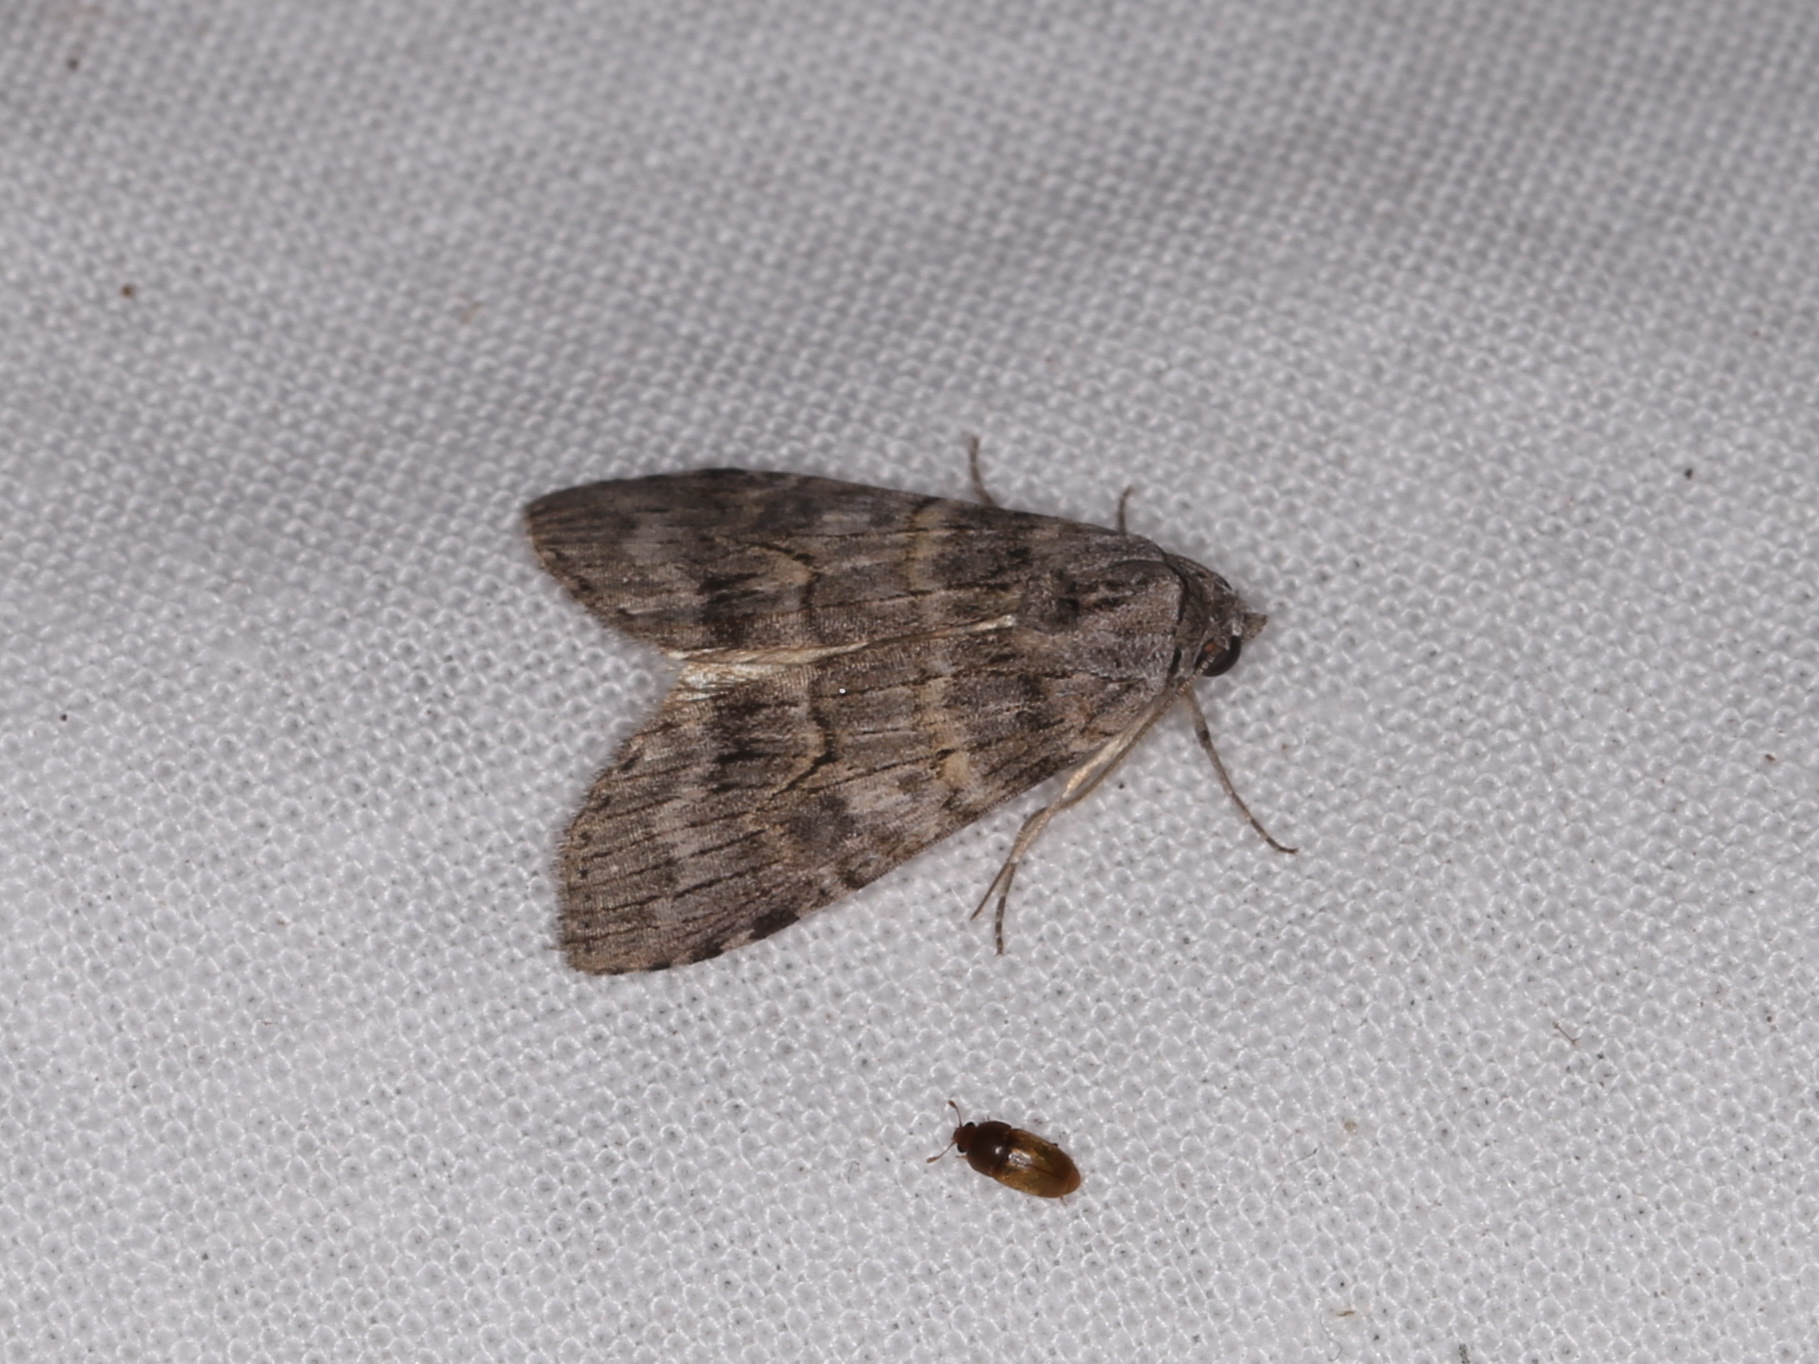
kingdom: Animalia
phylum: Arthropoda
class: Insecta
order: Lepidoptera
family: Nolidae
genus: Calathusa
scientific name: Calathusa ischnodes
